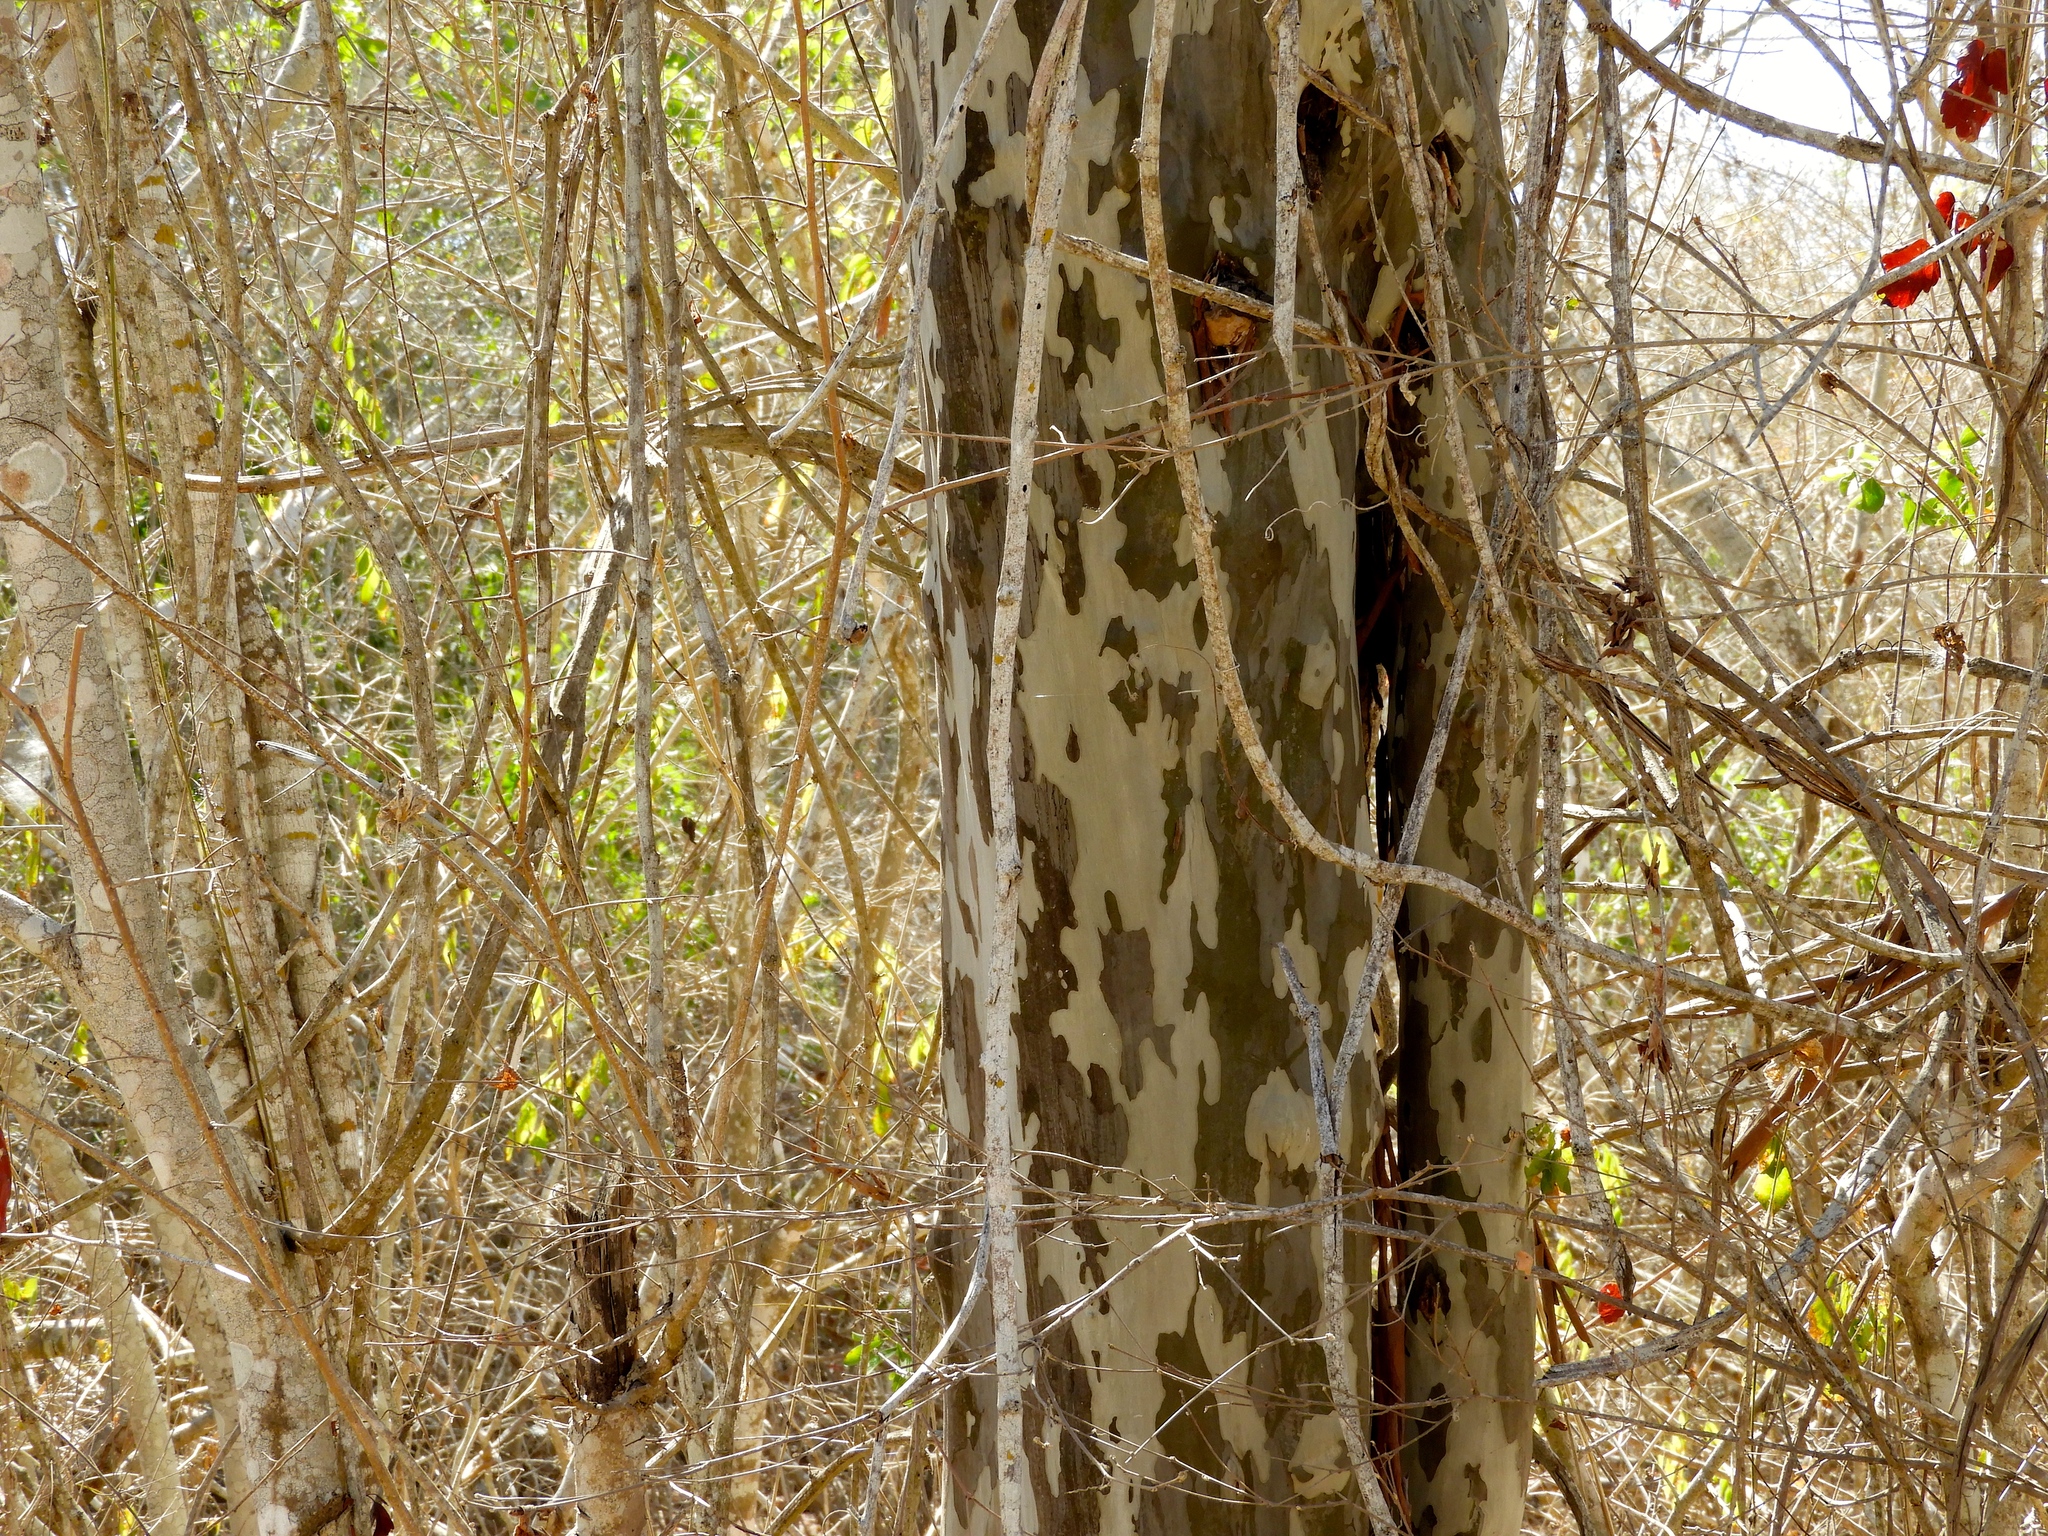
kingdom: Plantae
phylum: Tracheophyta
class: Magnoliopsida
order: Fabales
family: Fabaceae
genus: Libidibia
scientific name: Libidibia sclerocarpa
